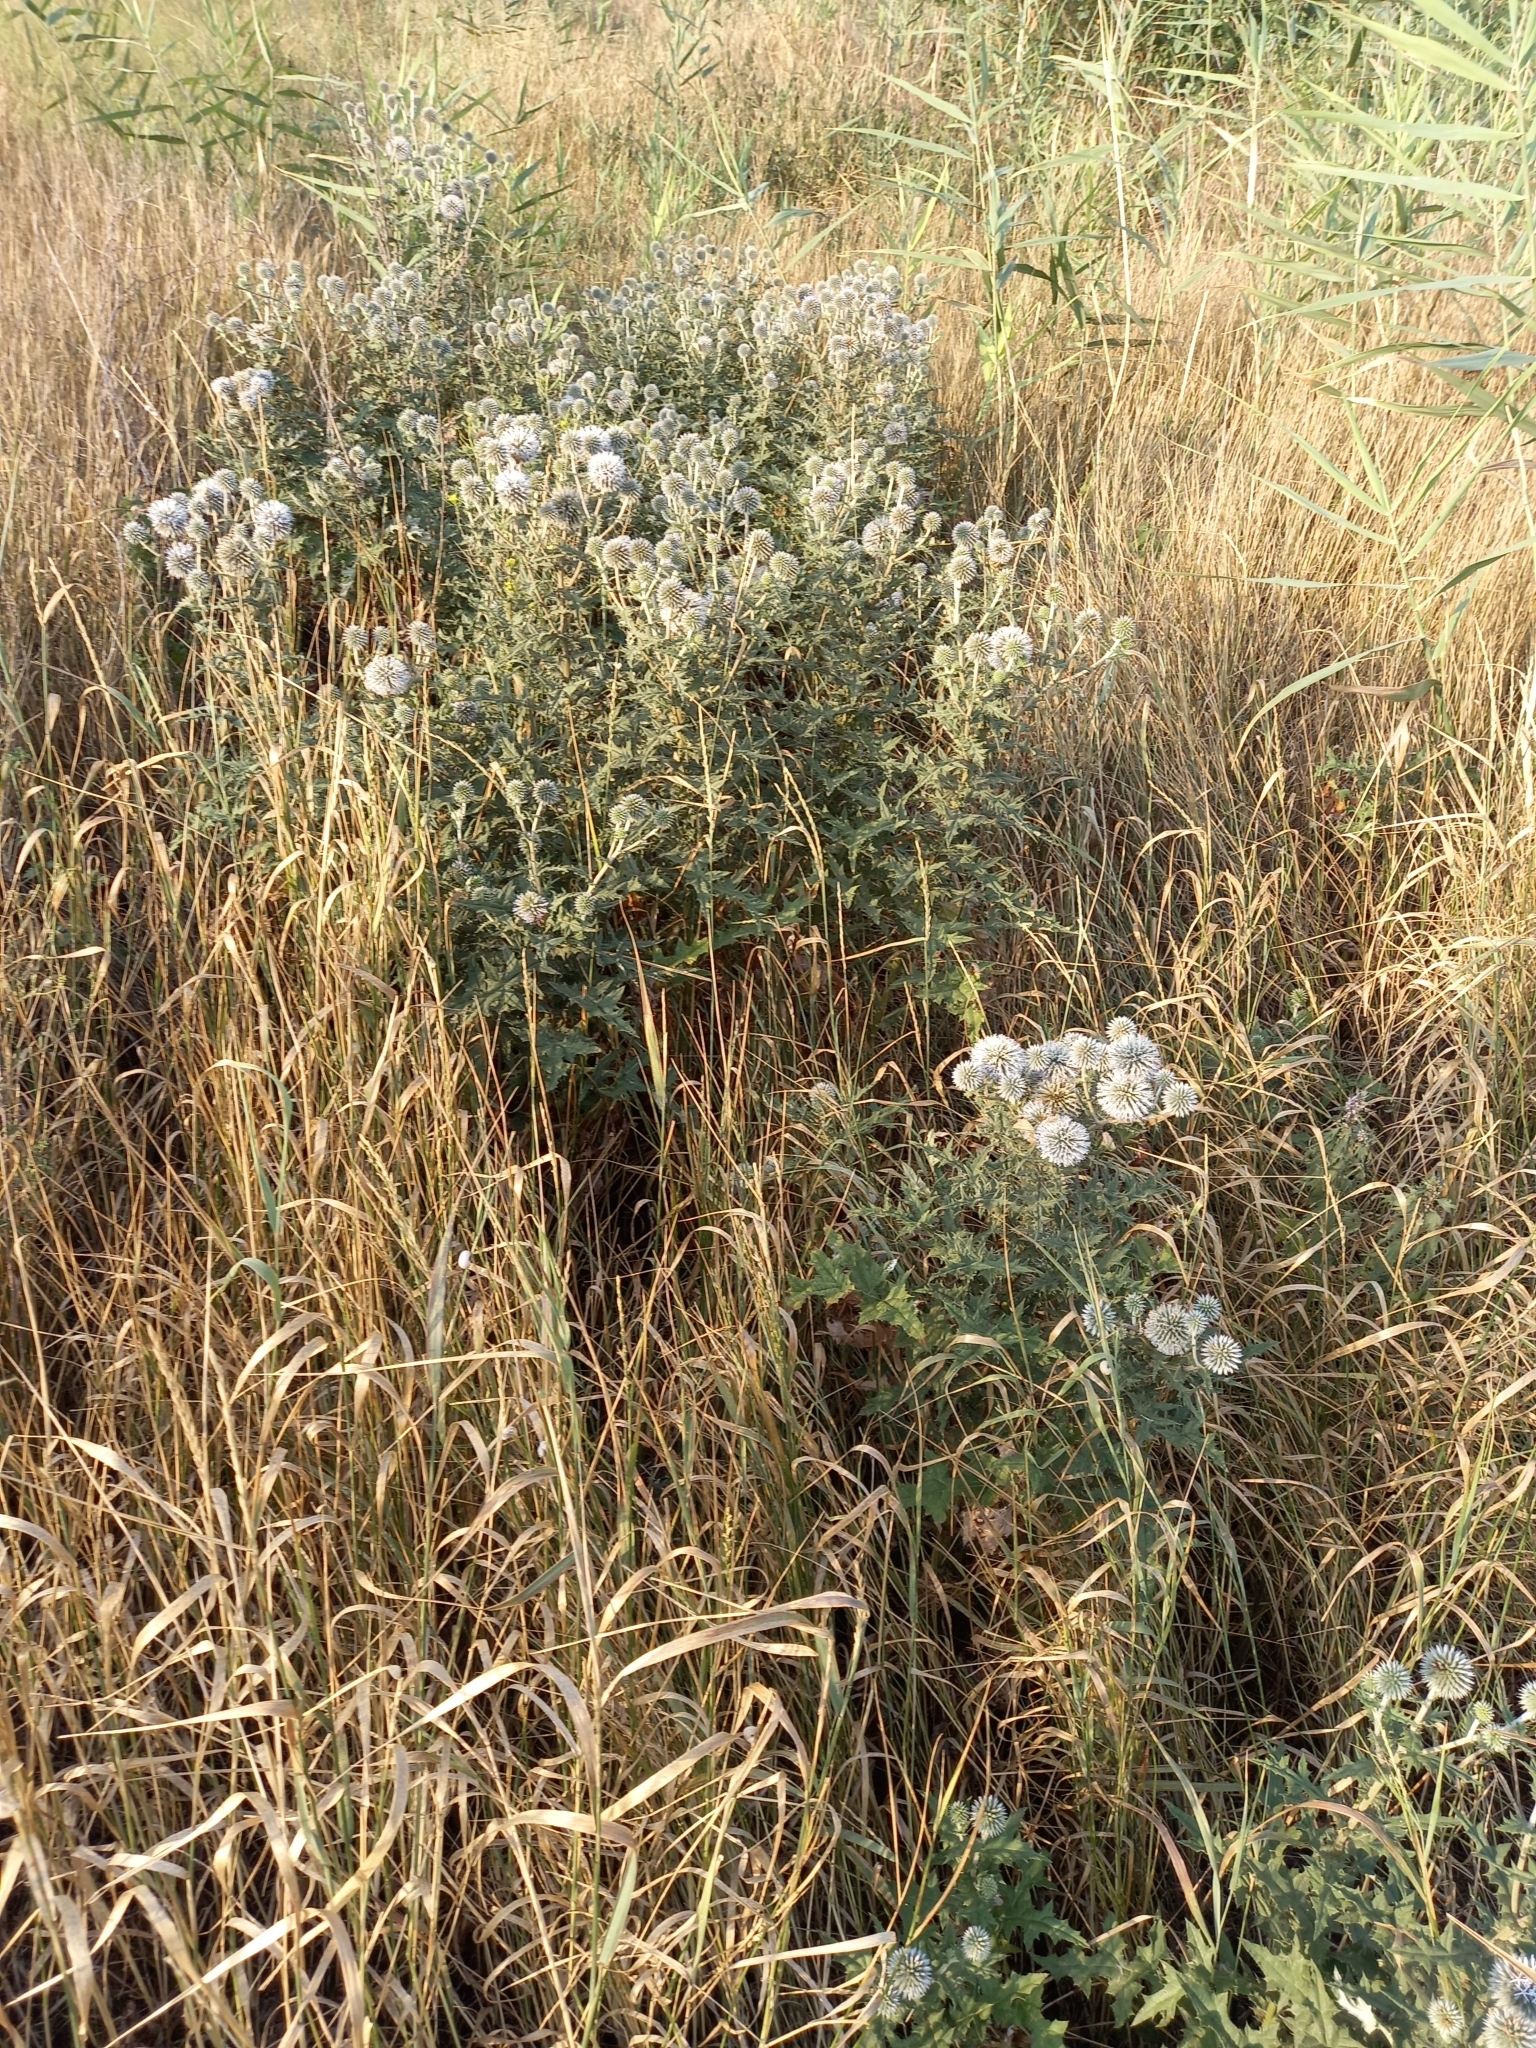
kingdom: Plantae
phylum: Tracheophyta
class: Magnoliopsida
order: Asterales
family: Asteraceae
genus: Echinops
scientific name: Echinops sphaerocephalus
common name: Glandular globe-thistle
